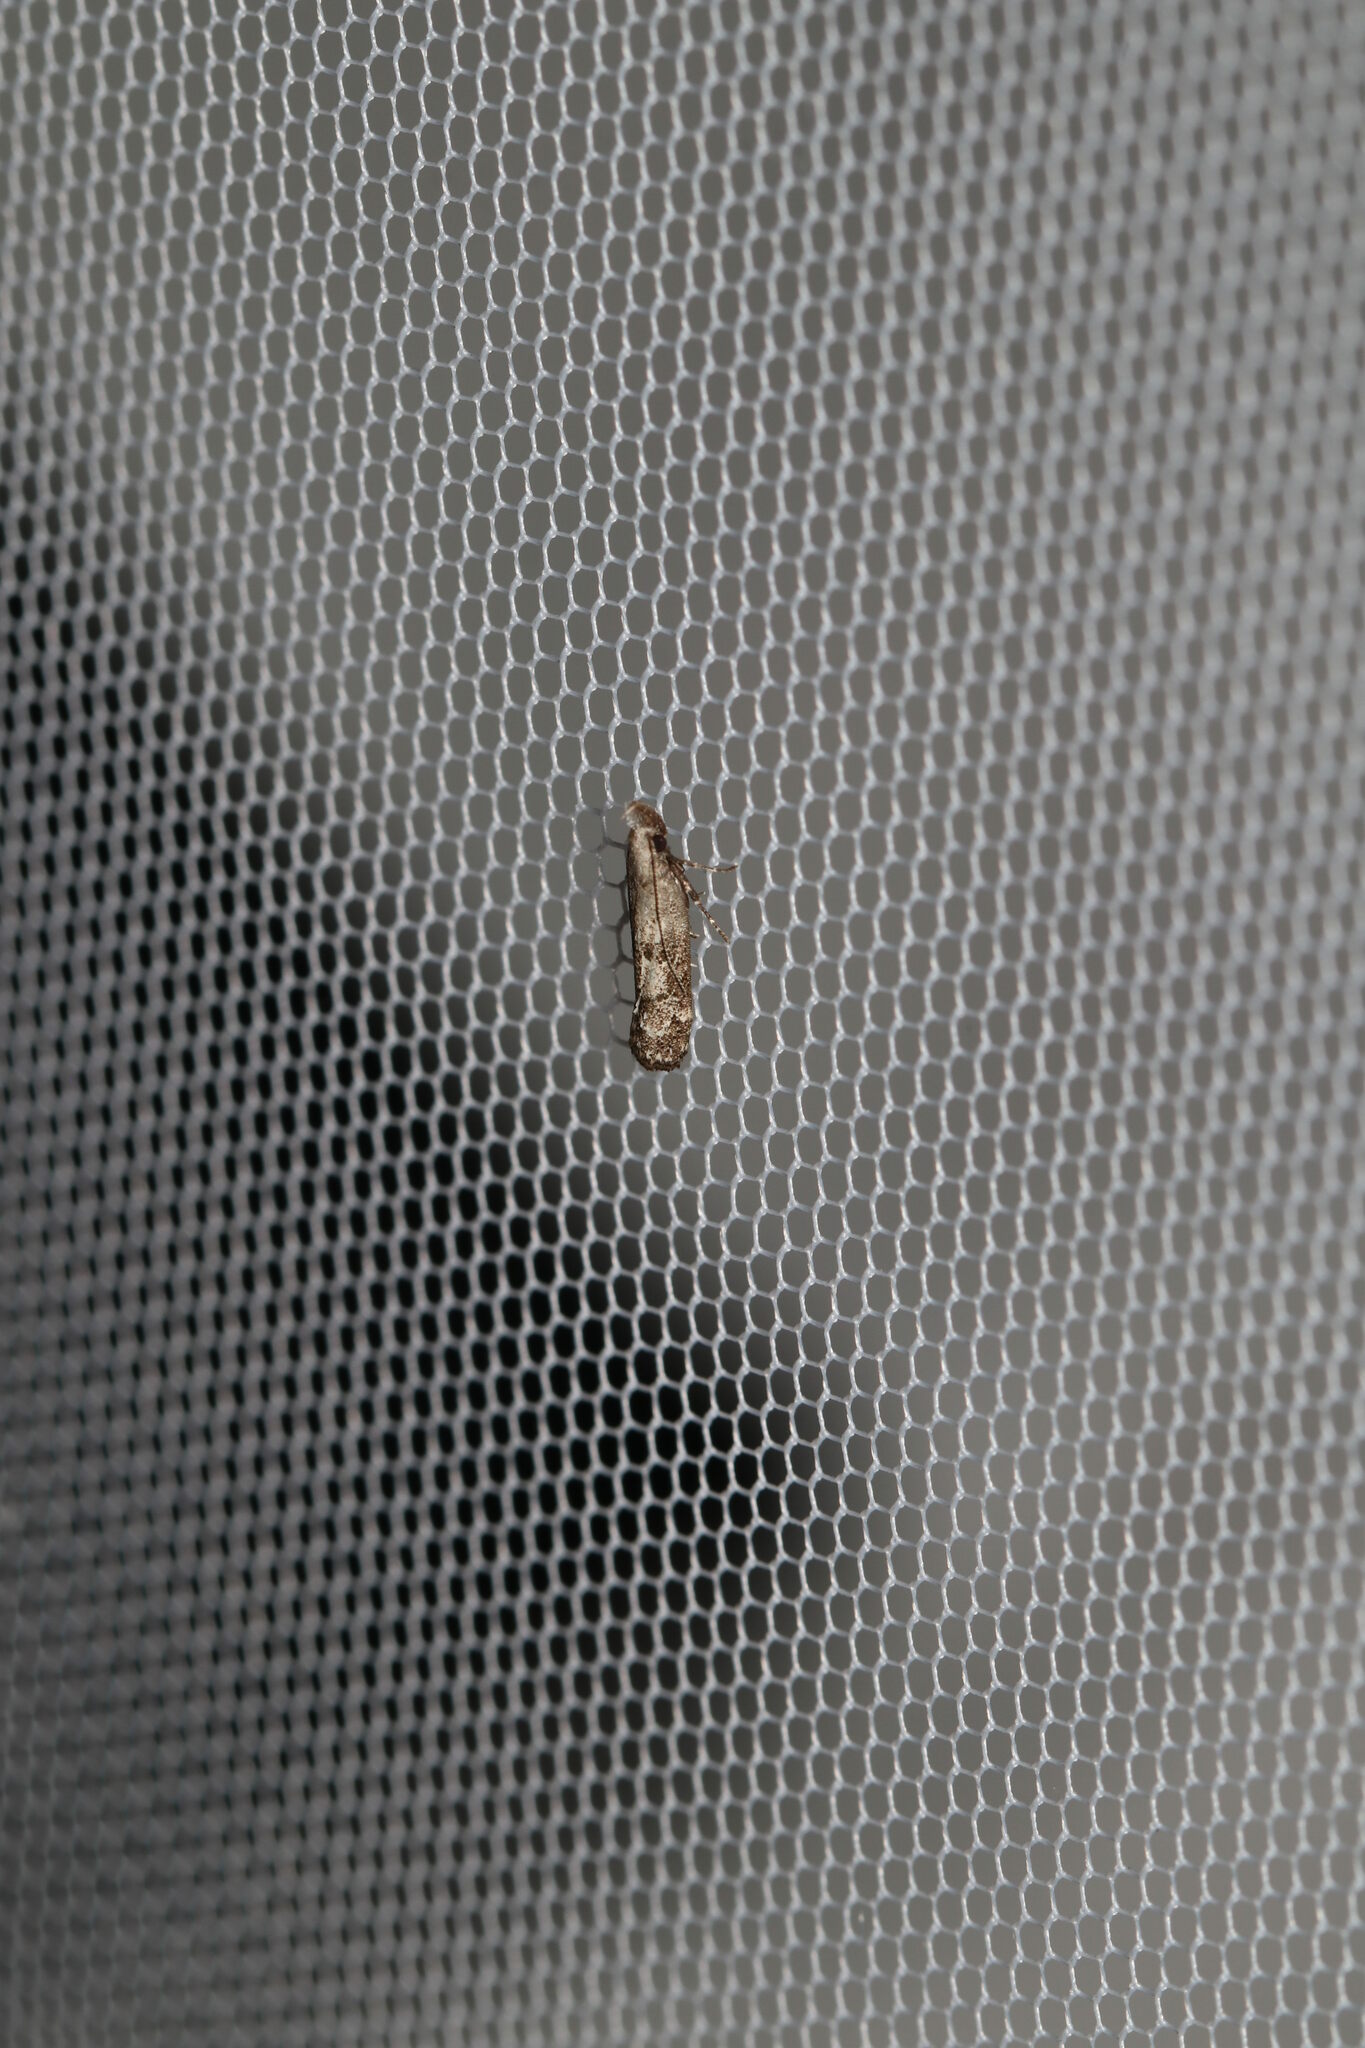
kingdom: Animalia
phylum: Arthropoda
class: Insecta
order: Lepidoptera
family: Gelechiidae
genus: Dichomeris
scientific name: Dichomeris inversella
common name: Inverse dichomeris moth
